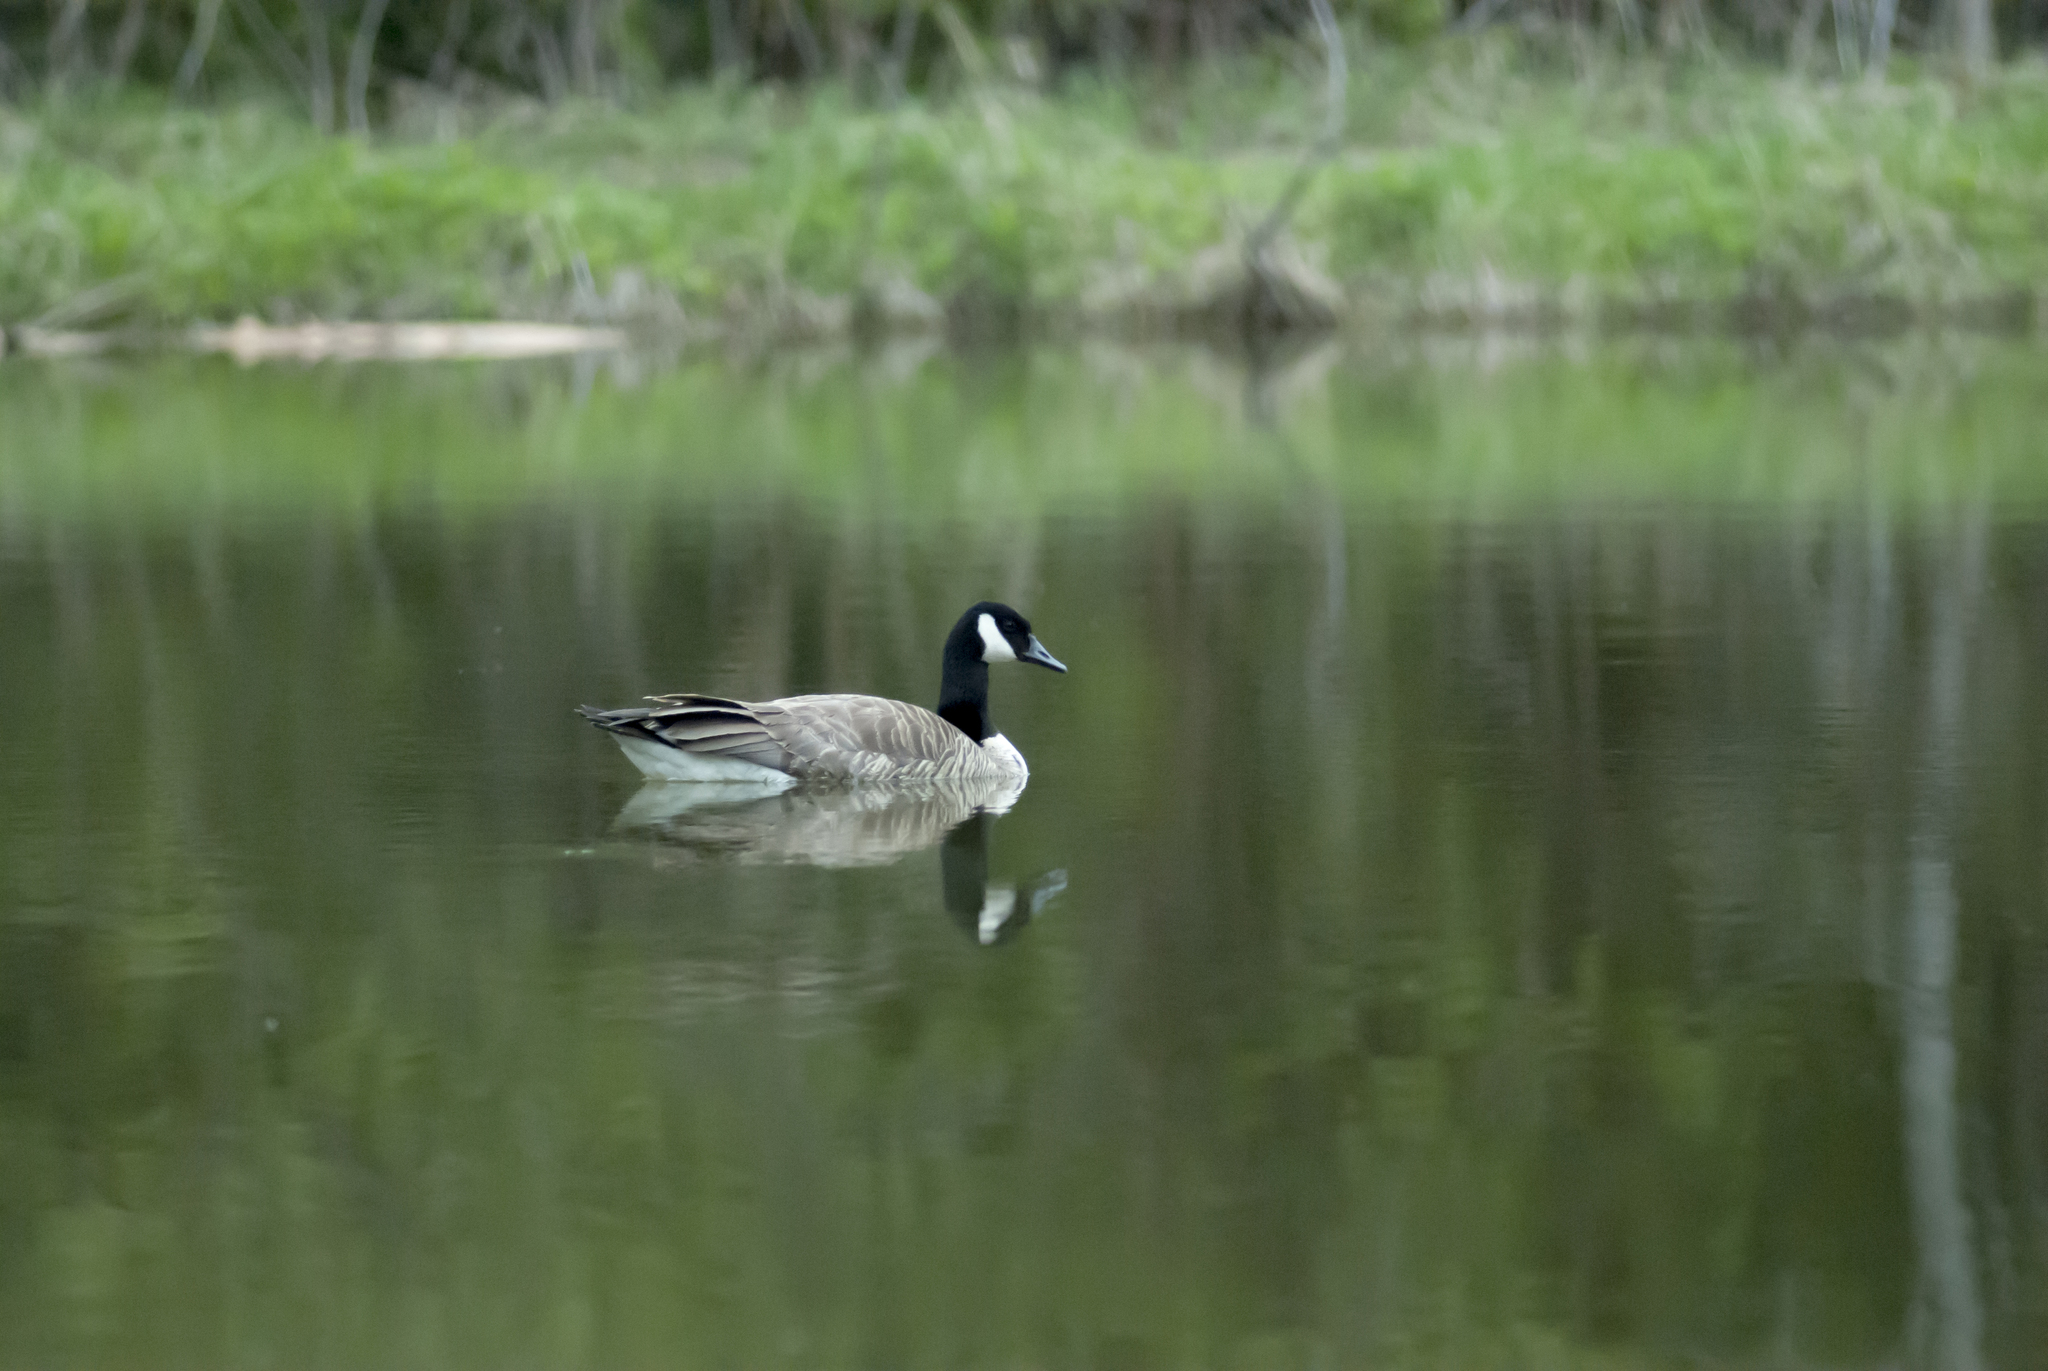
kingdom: Plantae
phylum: Tracheophyta
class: Liliopsida
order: Liliales
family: Melanthiaceae
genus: Trillium
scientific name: Trillium grandiflorum
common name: Great white trillium
